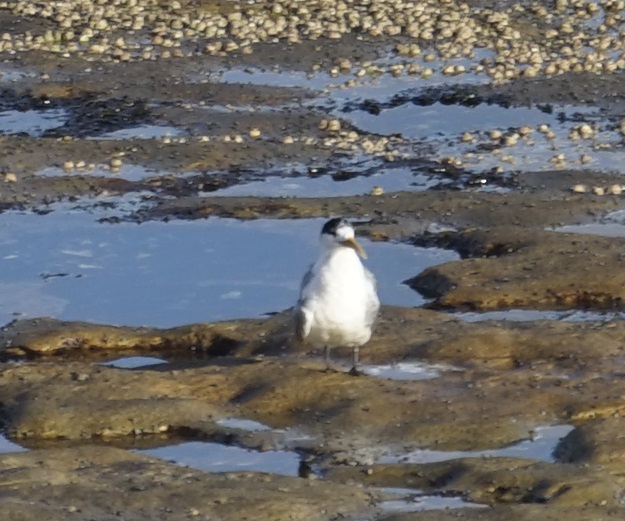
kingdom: Animalia
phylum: Chordata
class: Aves
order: Charadriiformes
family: Laridae
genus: Thalasseus
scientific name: Thalasseus bergii
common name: Greater crested tern
